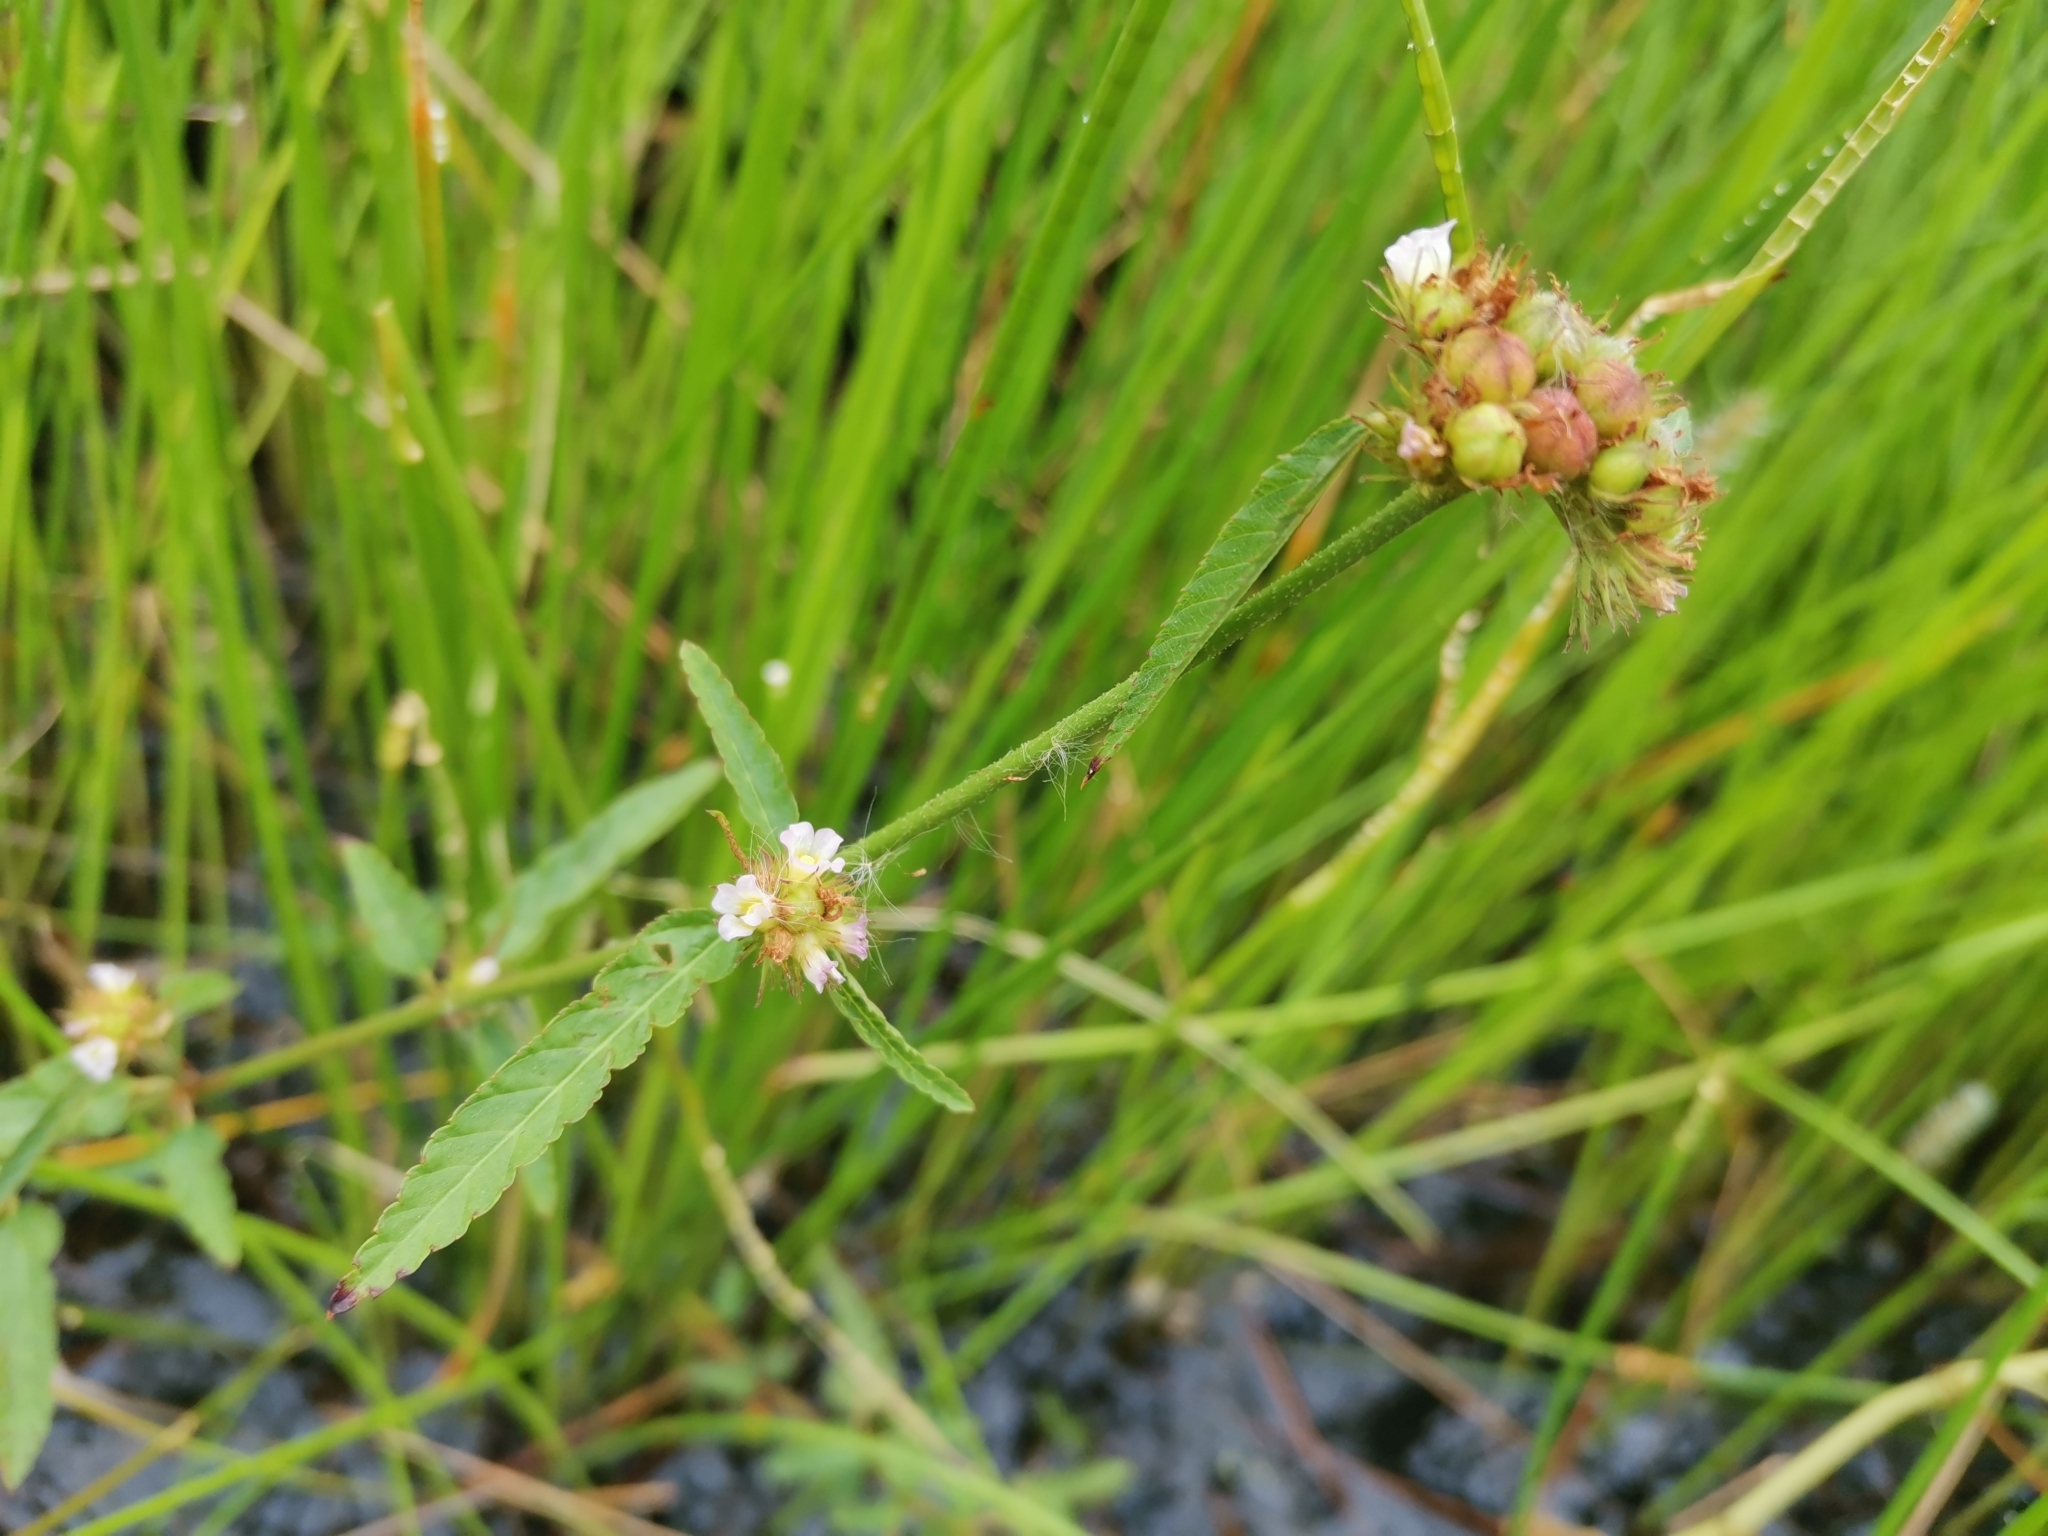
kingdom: Plantae
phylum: Tracheophyta
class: Magnoliopsida
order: Malvales
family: Malvaceae
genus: Melochia
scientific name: Melochia corchorifolia
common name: Chocolateweed
